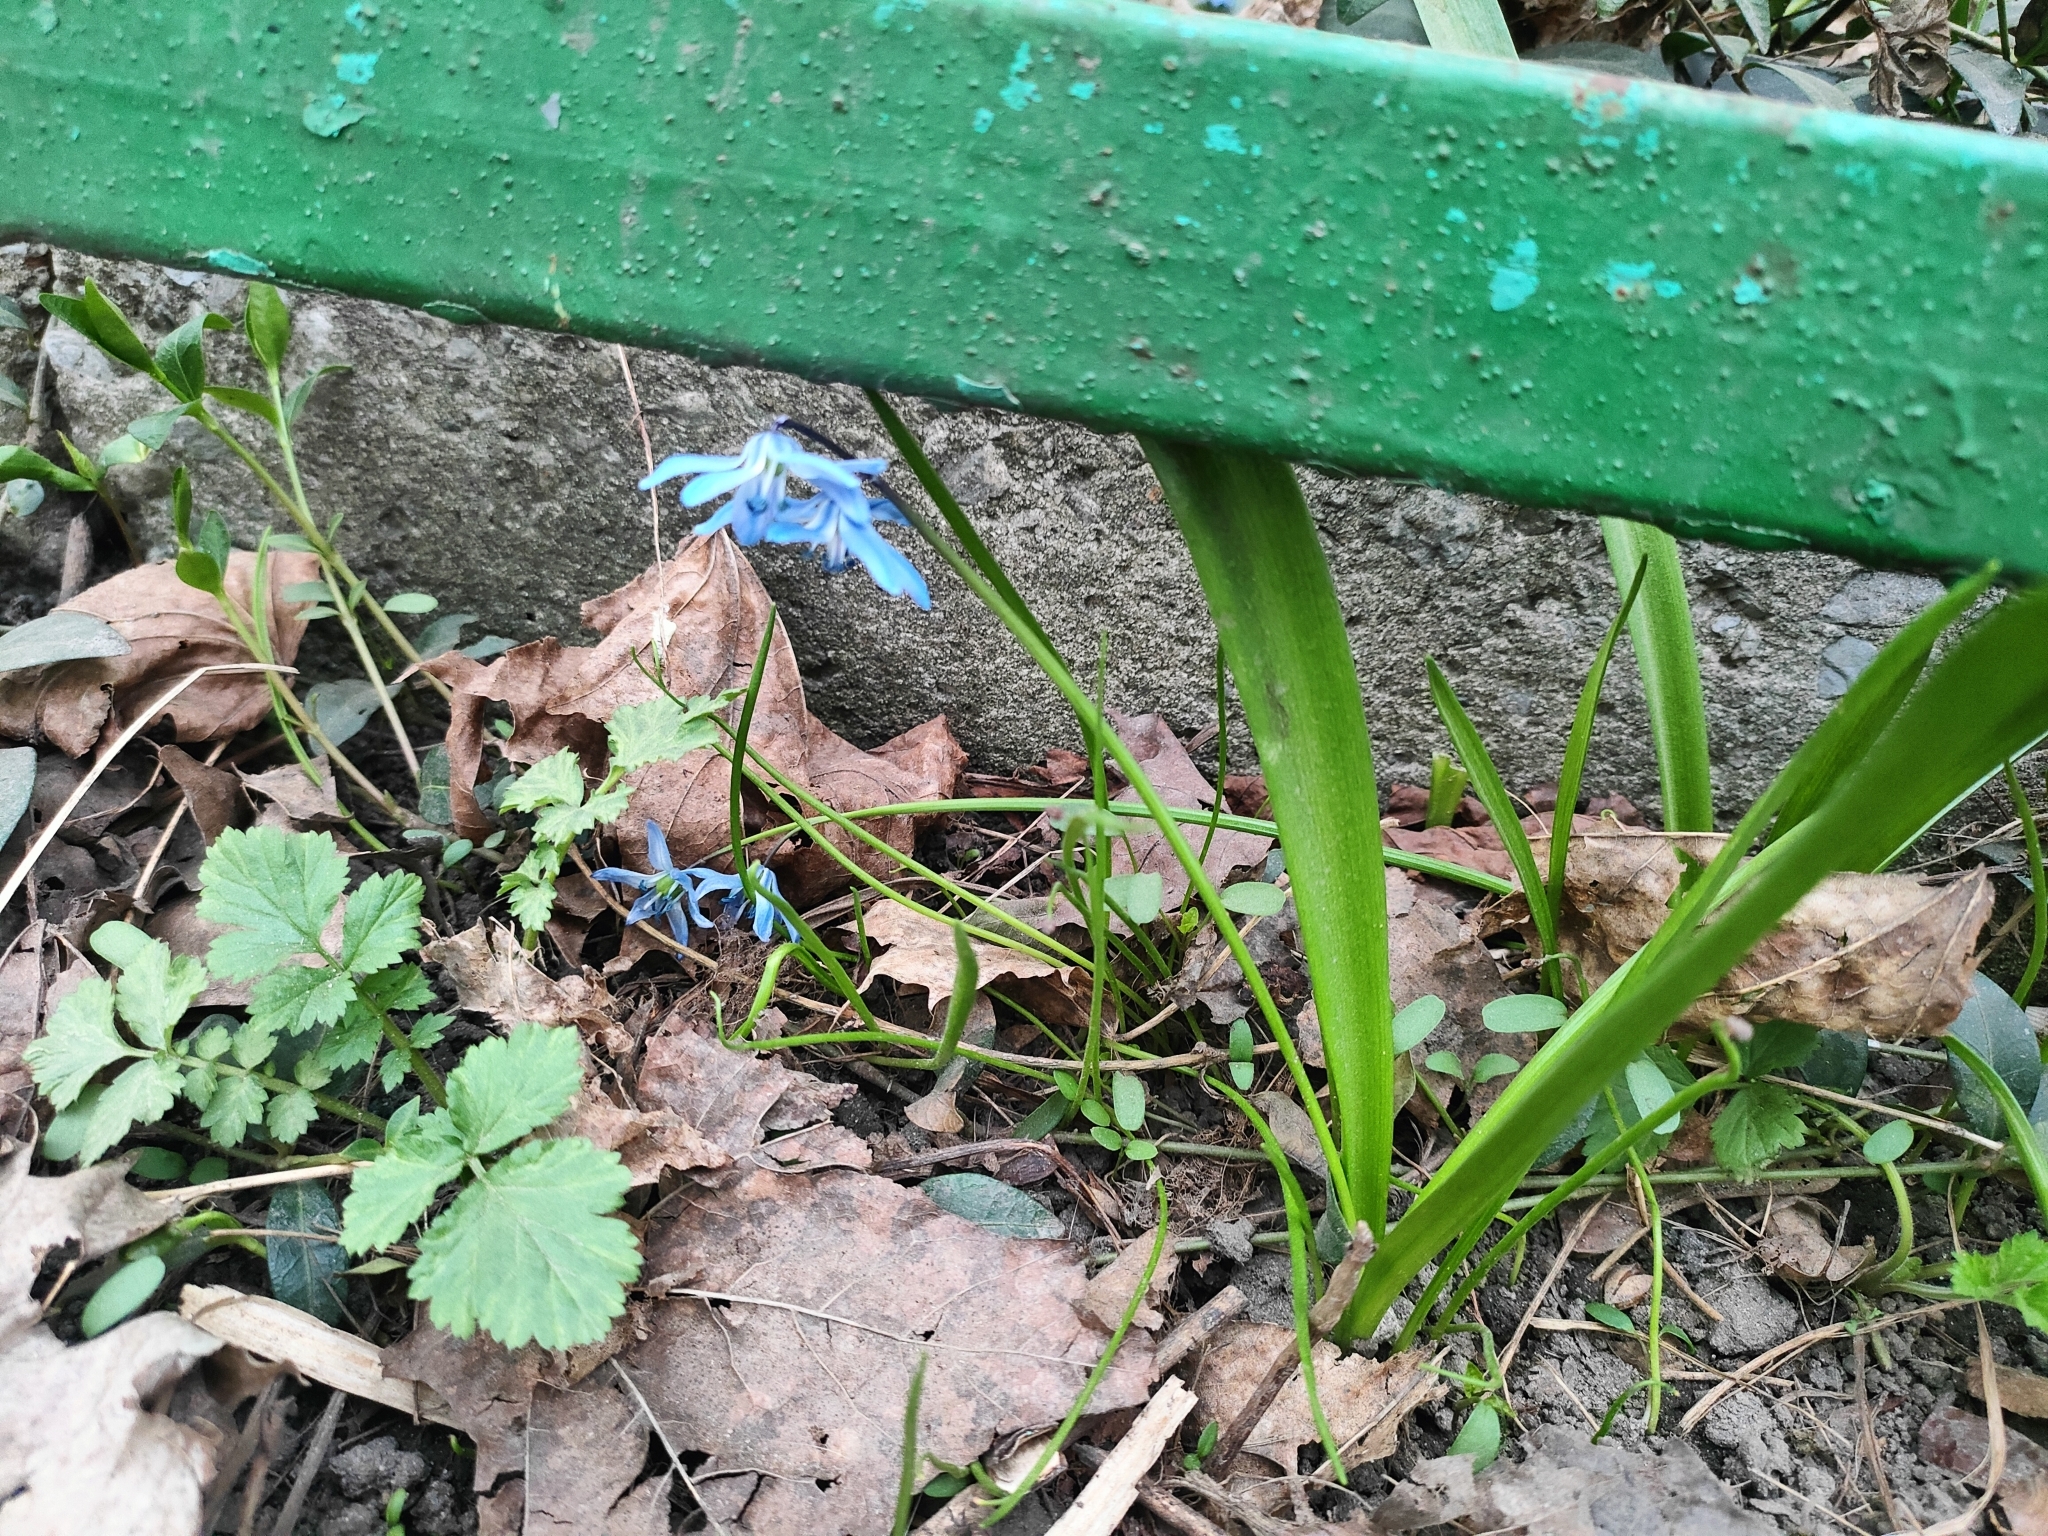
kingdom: Plantae
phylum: Tracheophyta
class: Liliopsida
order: Asparagales
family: Asparagaceae
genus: Scilla
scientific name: Scilla siberica
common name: Siberian squill
